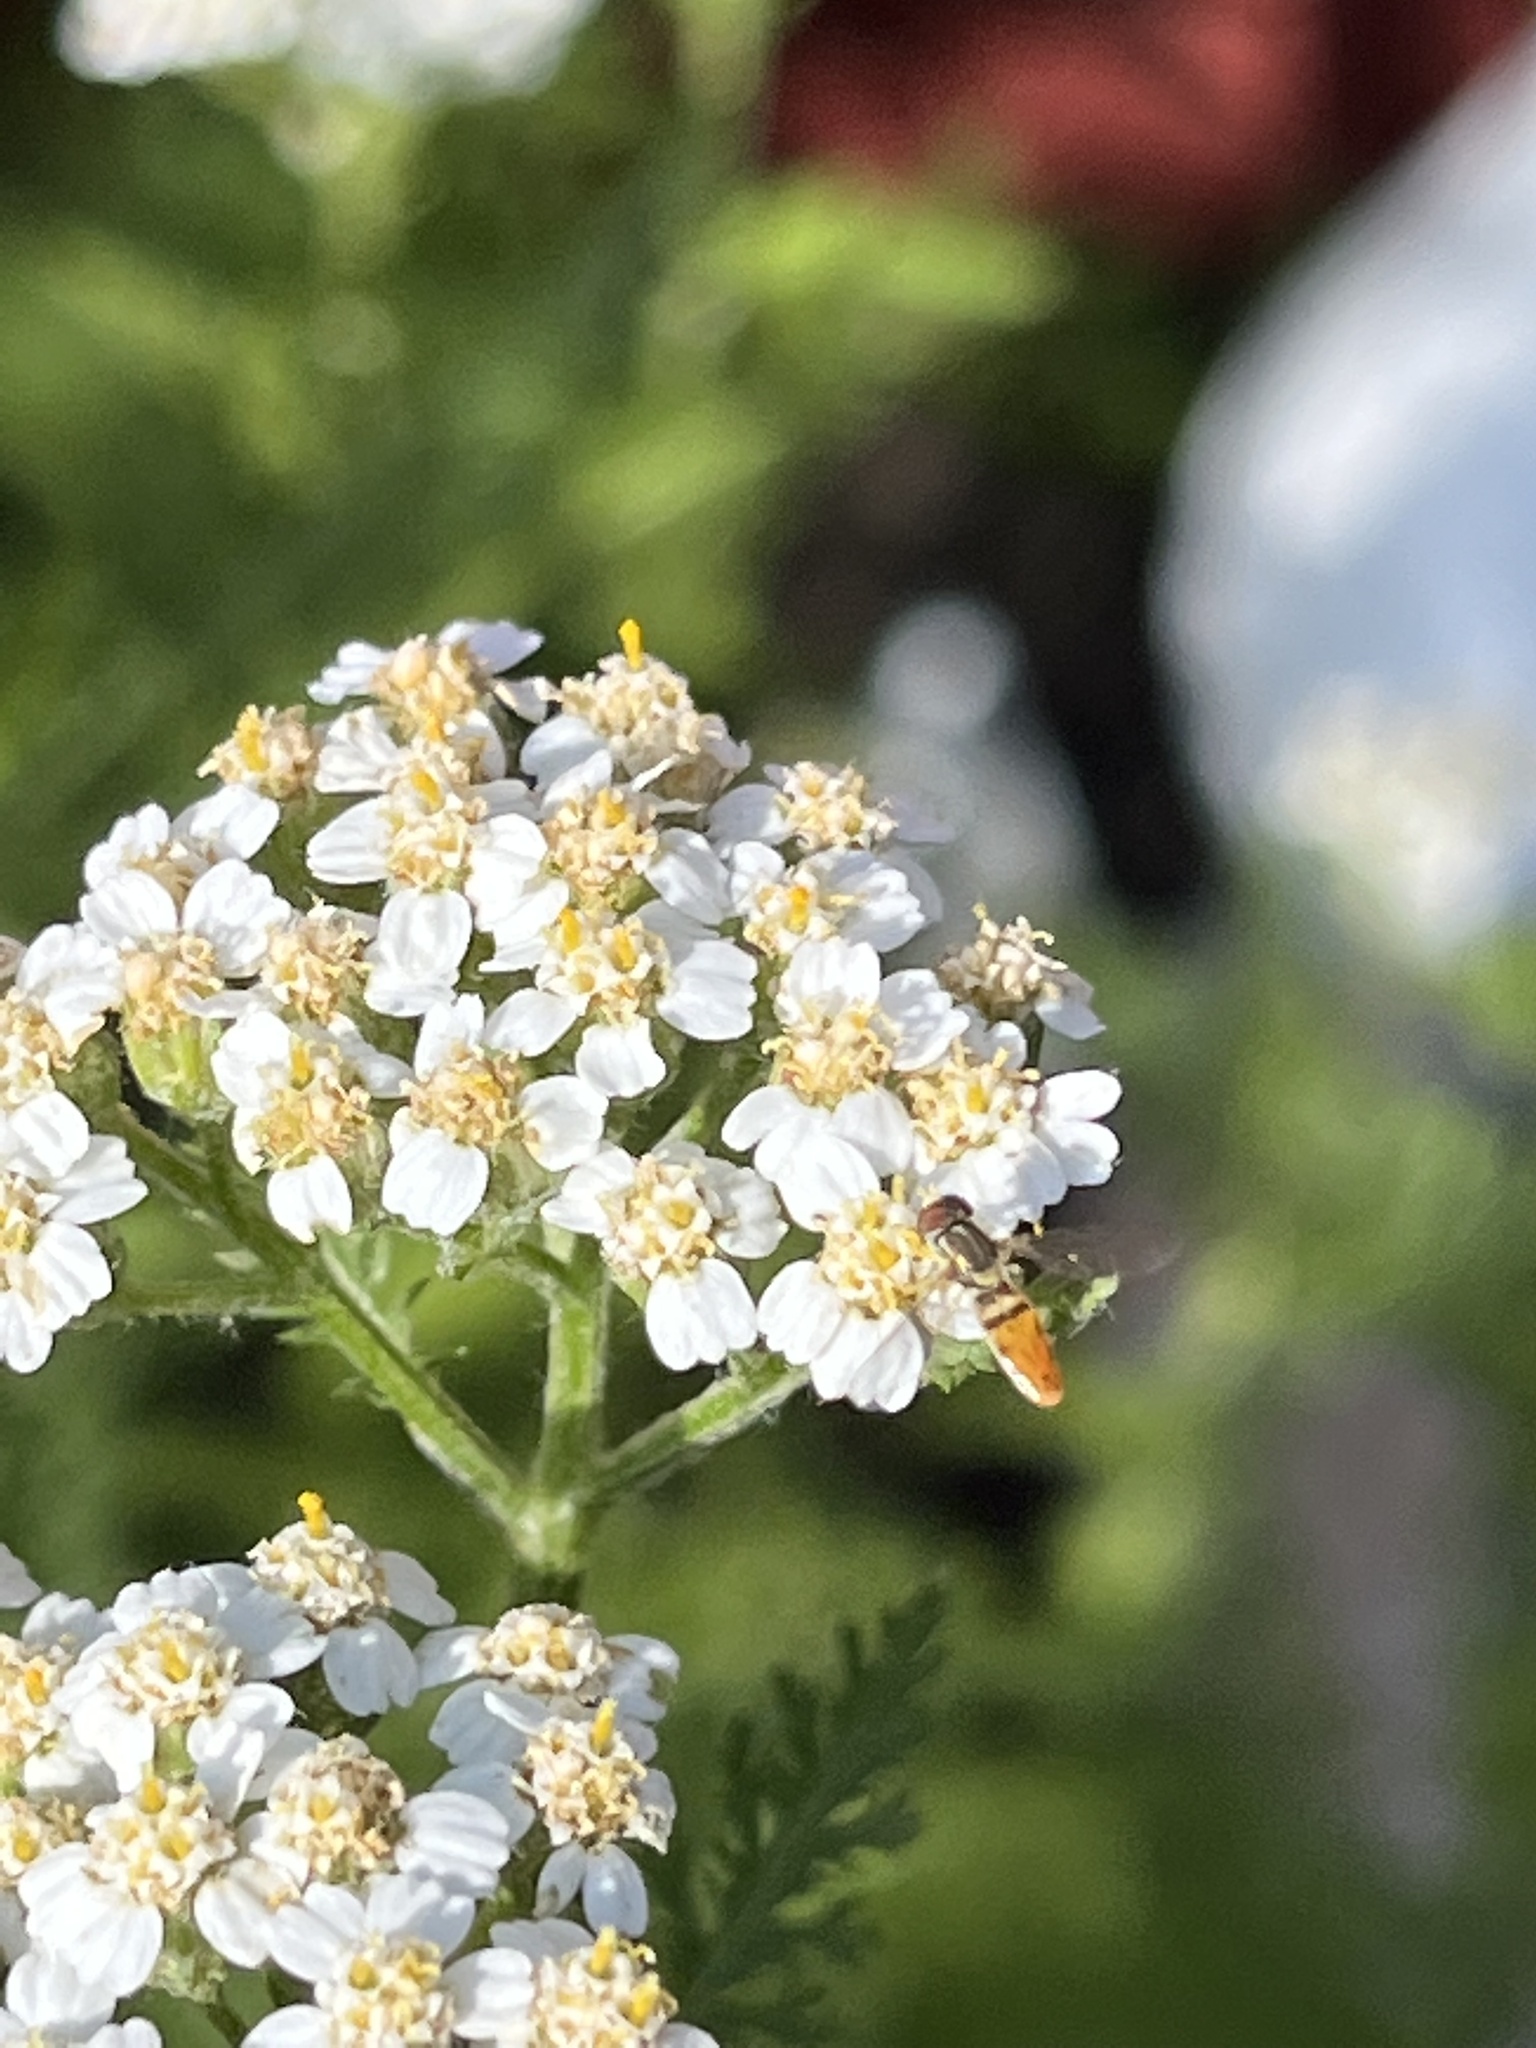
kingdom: Animalia
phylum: Arthropoda
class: Insecta
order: Diptera
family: Syrphidae
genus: Toxomerus
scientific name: Toxomerus marginatus
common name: Syrphid fly
